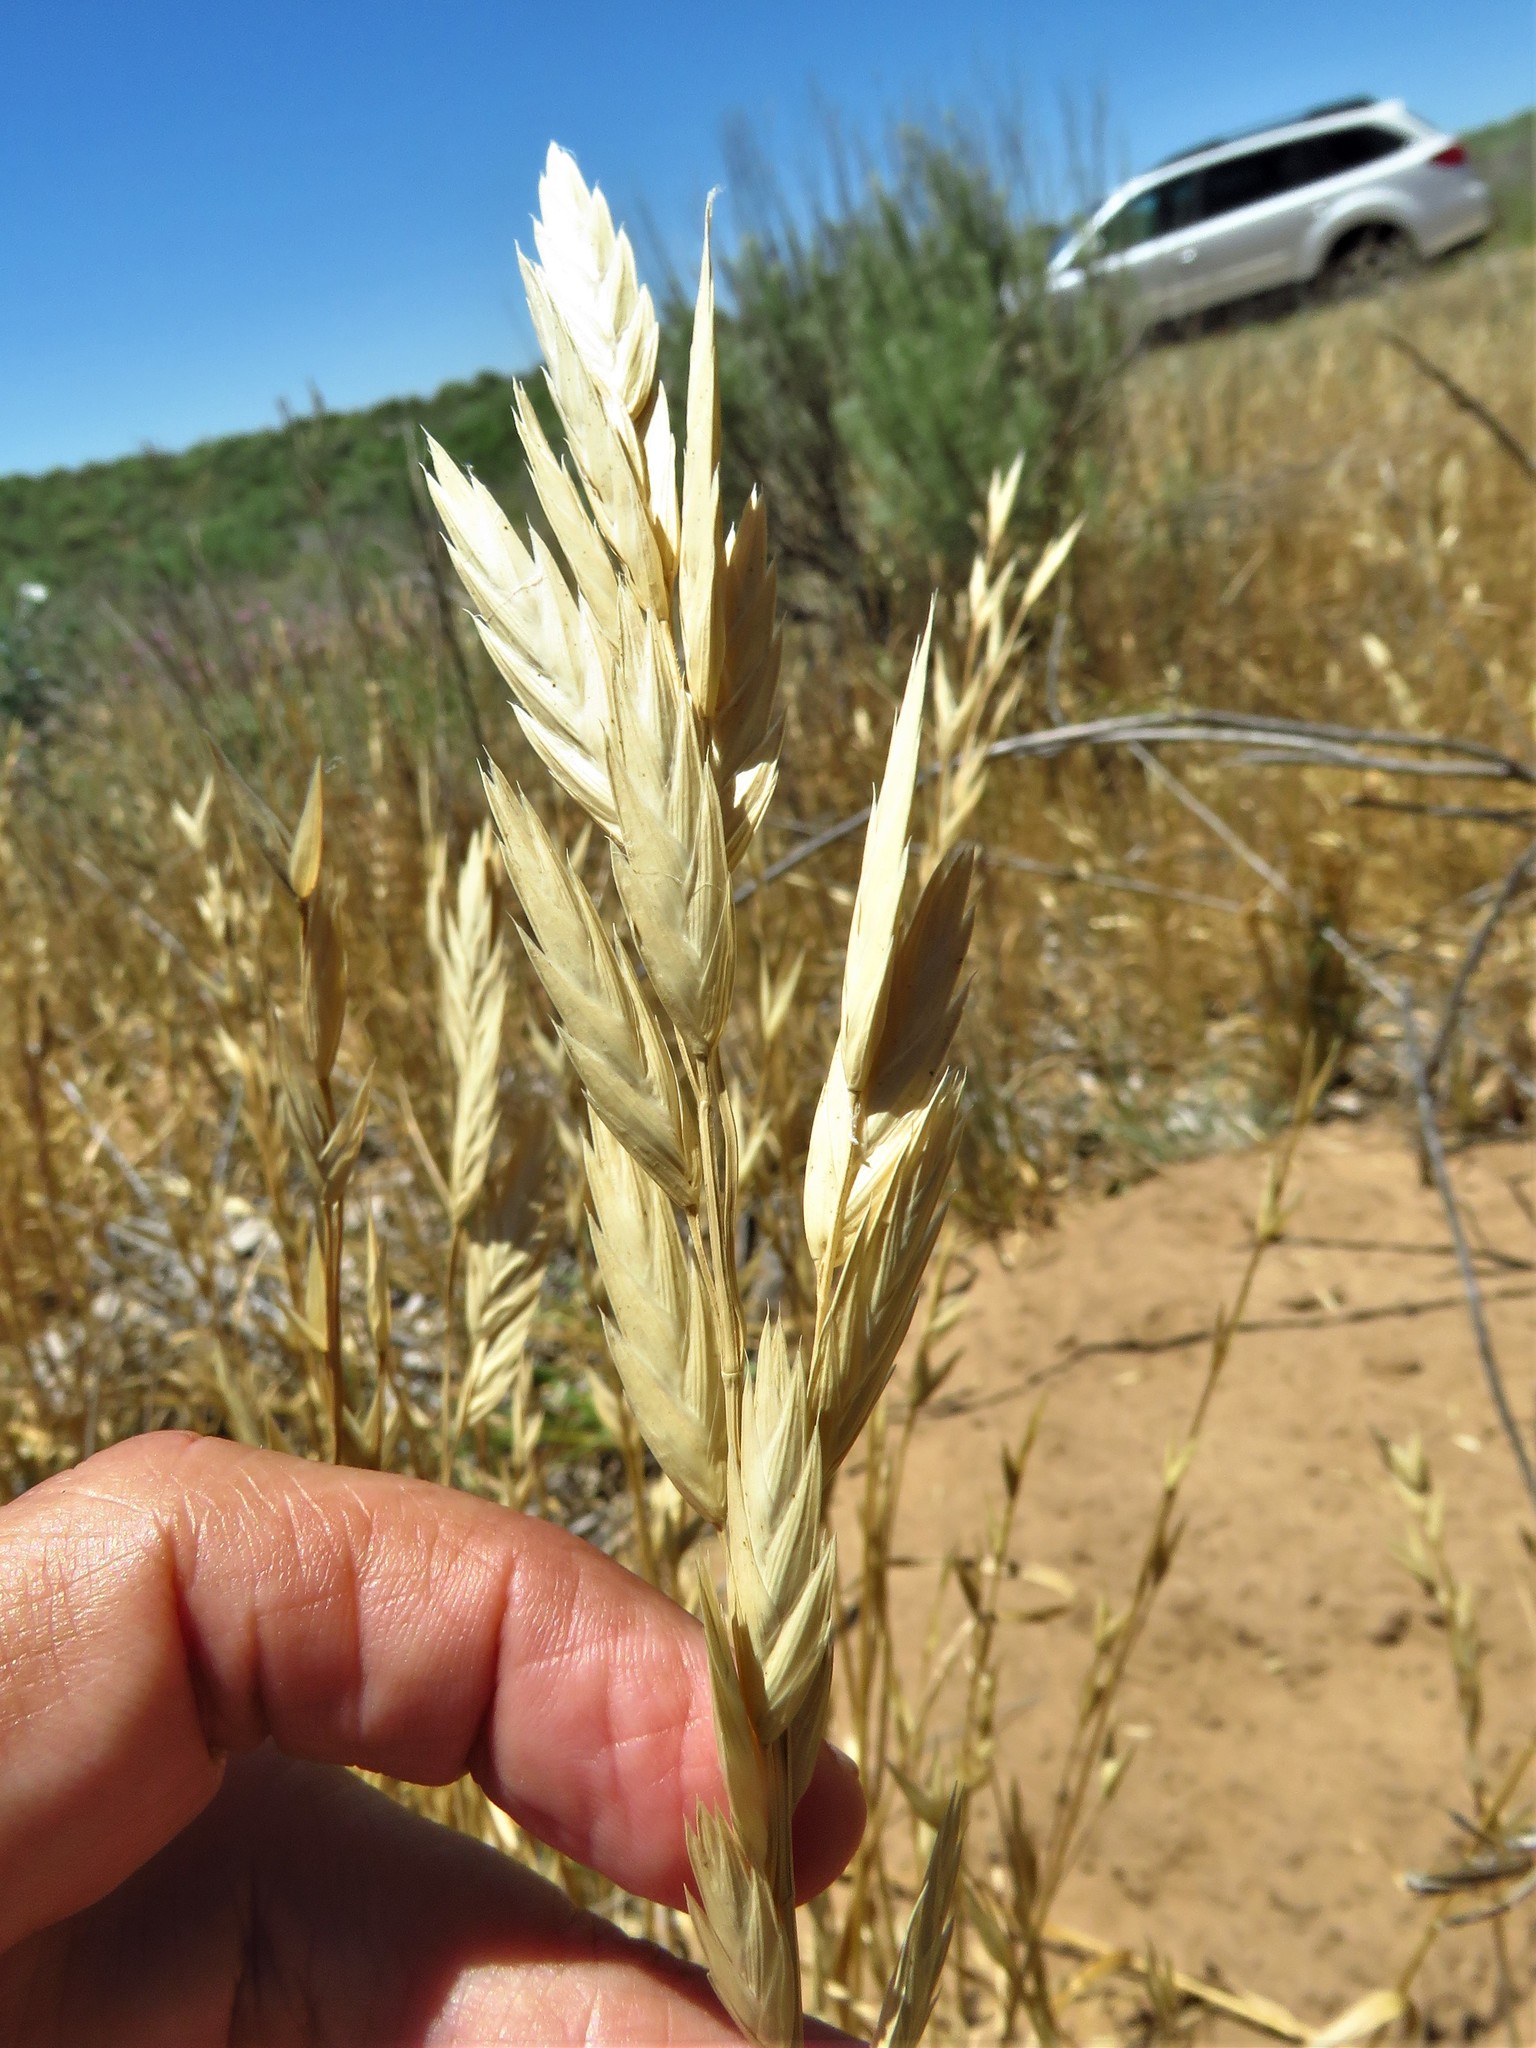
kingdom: Plantae
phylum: Tracheophyta
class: Liliopsida
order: Poales
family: Poaceae
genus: Bromus
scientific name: Bromus catharticus
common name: Rescuegrass
